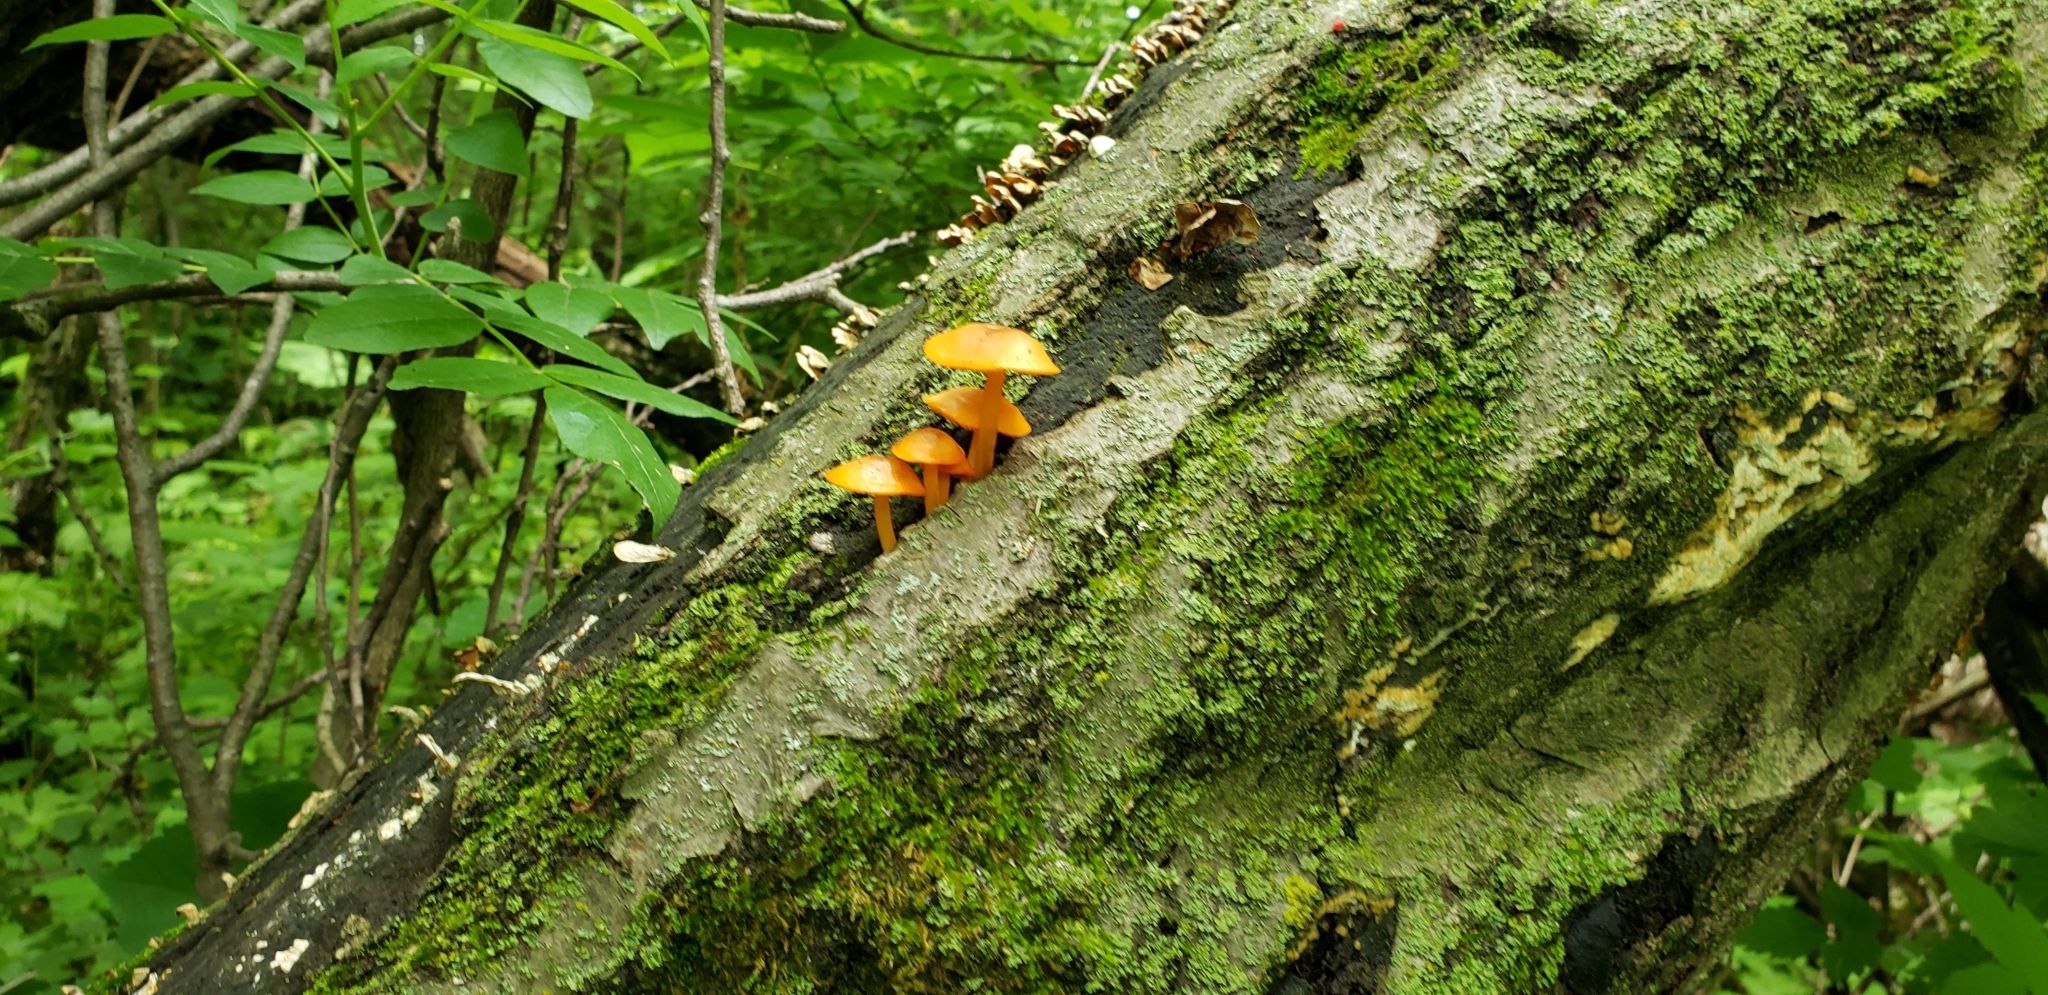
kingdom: Fungi
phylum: Basidiomycota
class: Agaricomycetes
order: Agaricales
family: Mycenaceae
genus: Mycena
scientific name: Mycena leaiana
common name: Orange mycena
